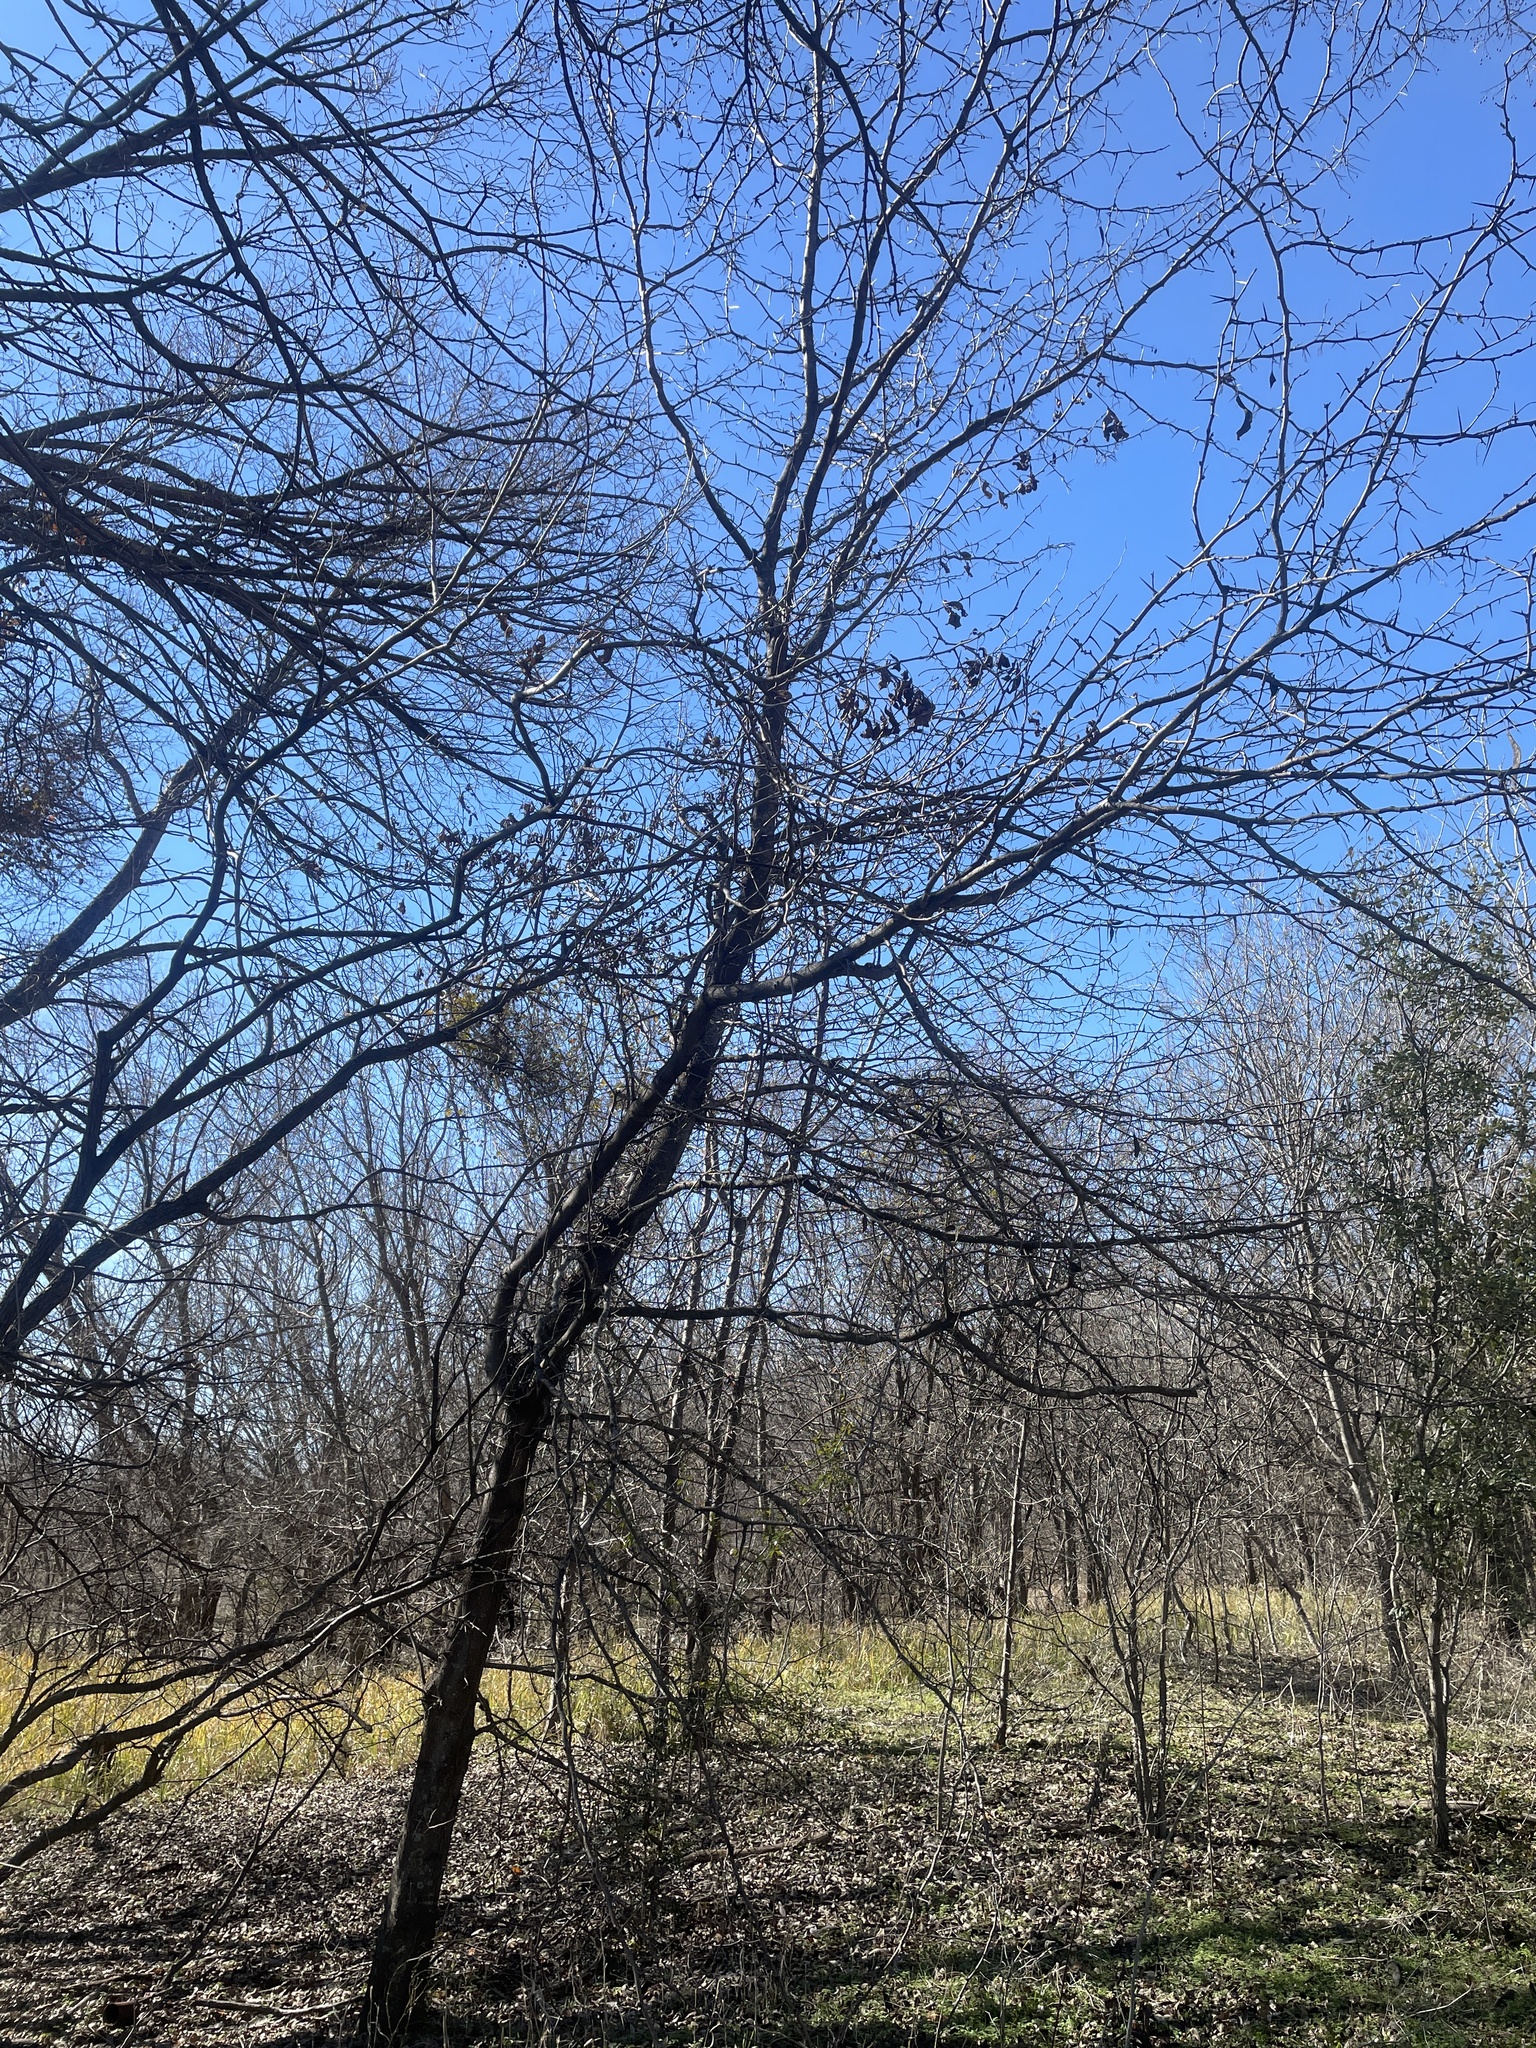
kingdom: Plantae
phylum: Tracheophyta
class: Magnoliopsida
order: Fabales
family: Fabaceae
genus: Gleditsia
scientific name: Gleditsia triacanthos
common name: Common honeylocust
